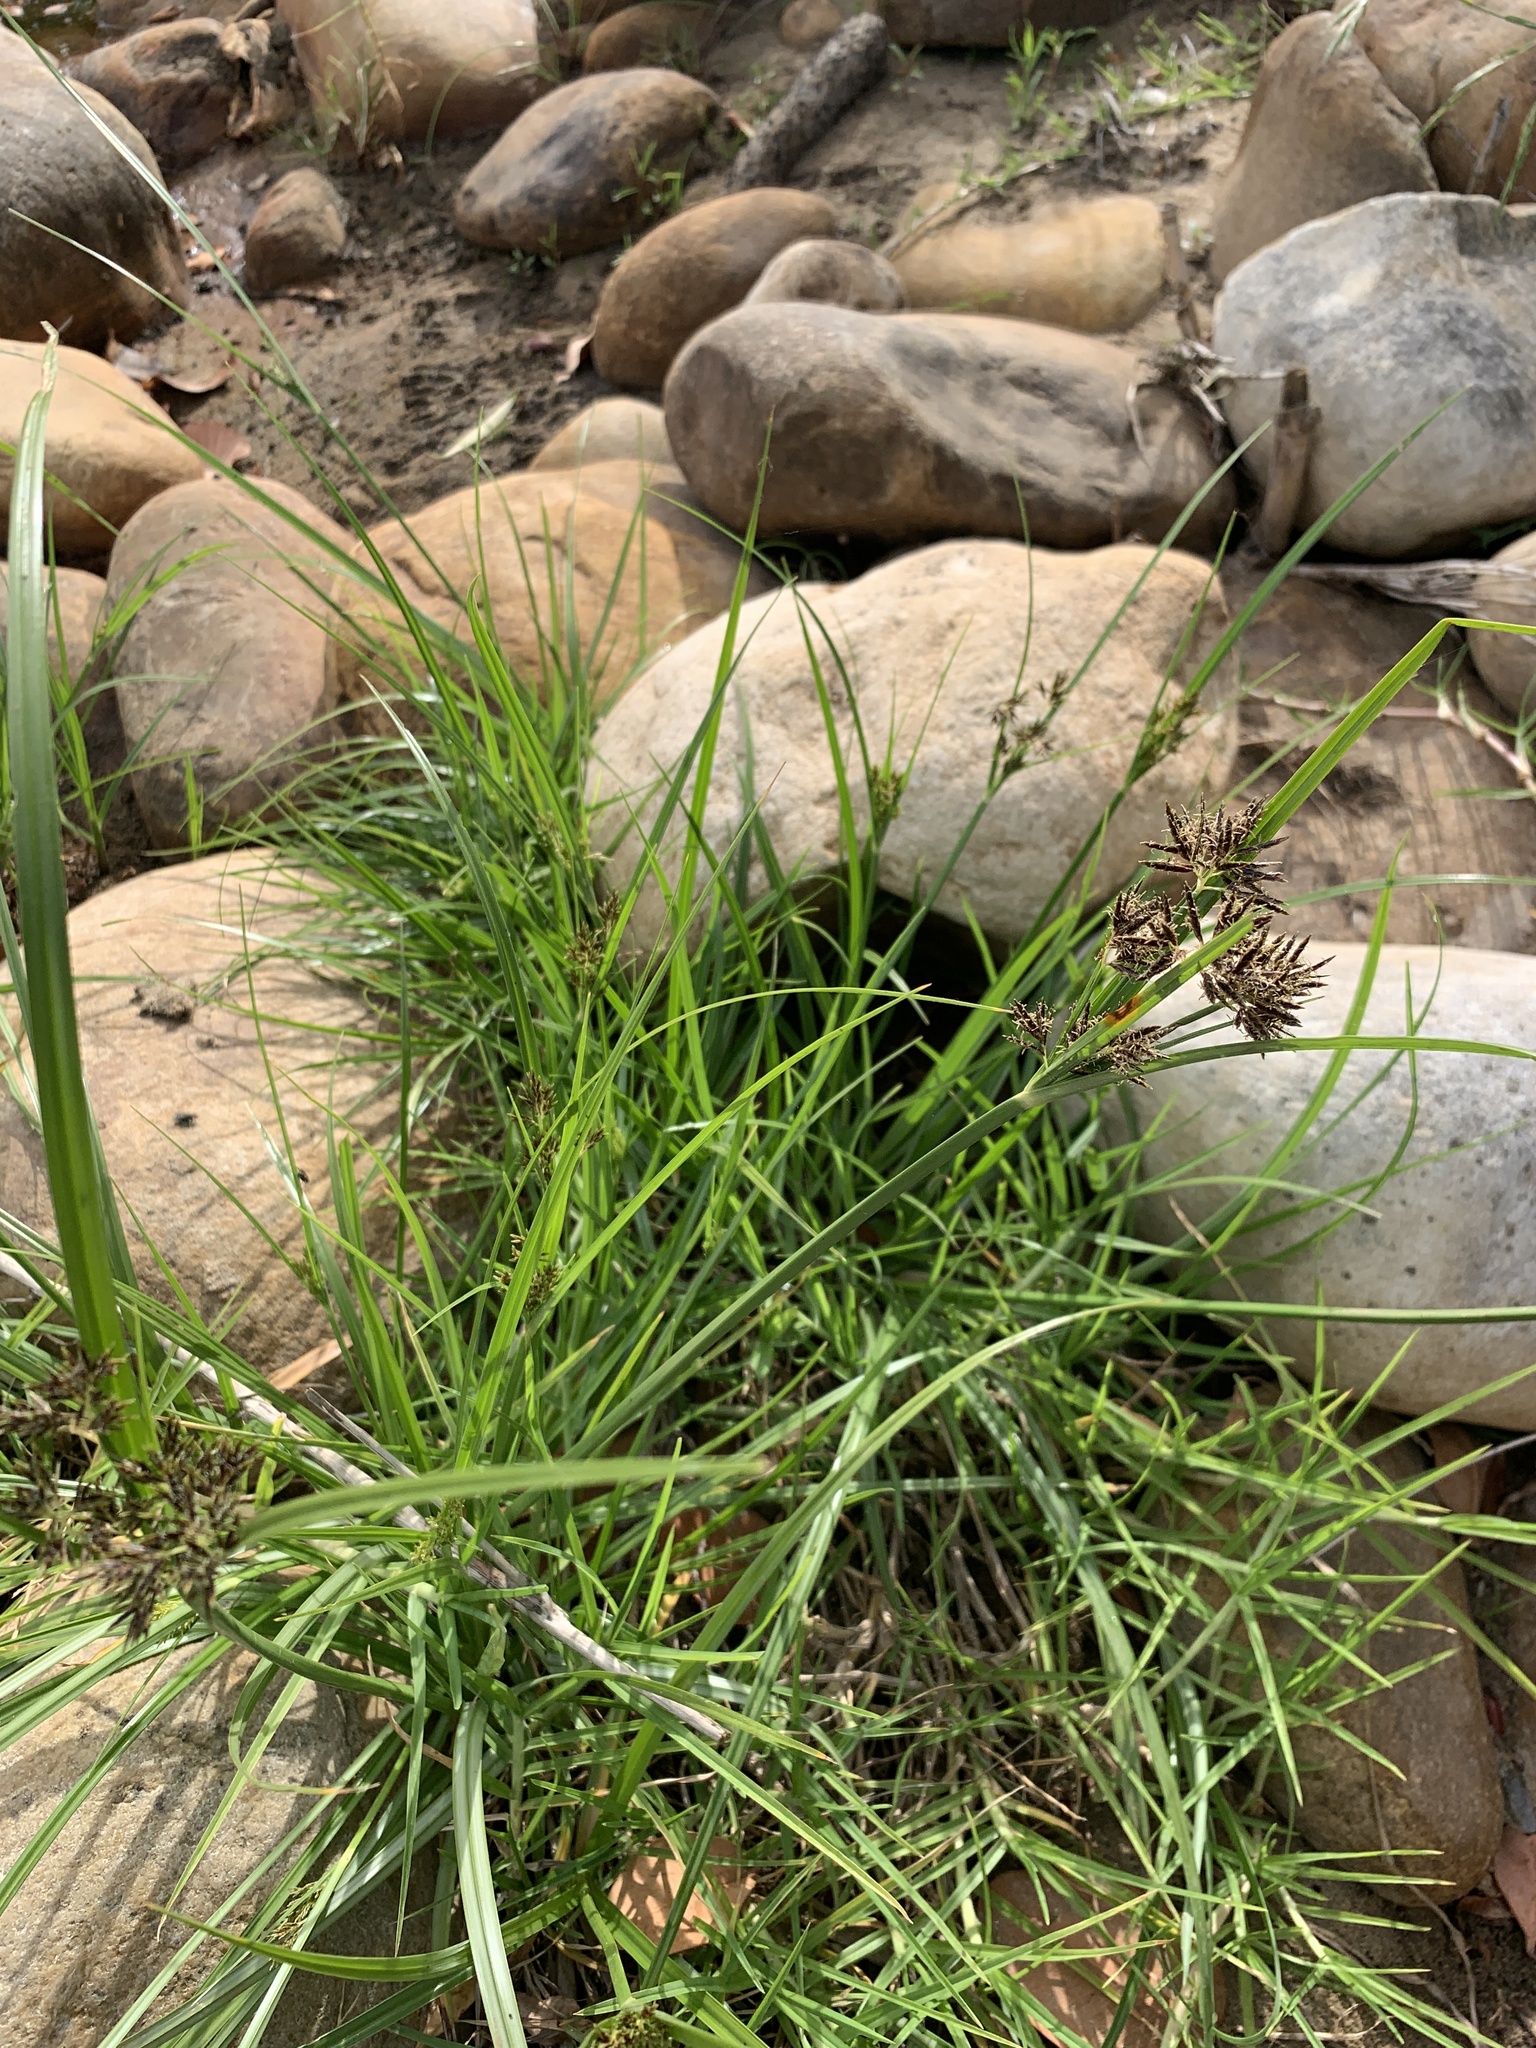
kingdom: Plantae
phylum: Tracheophyta
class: Liliopsida
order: Poales
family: Cyperaceae
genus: Cyperus
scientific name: Cyperus longus
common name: Galingale
